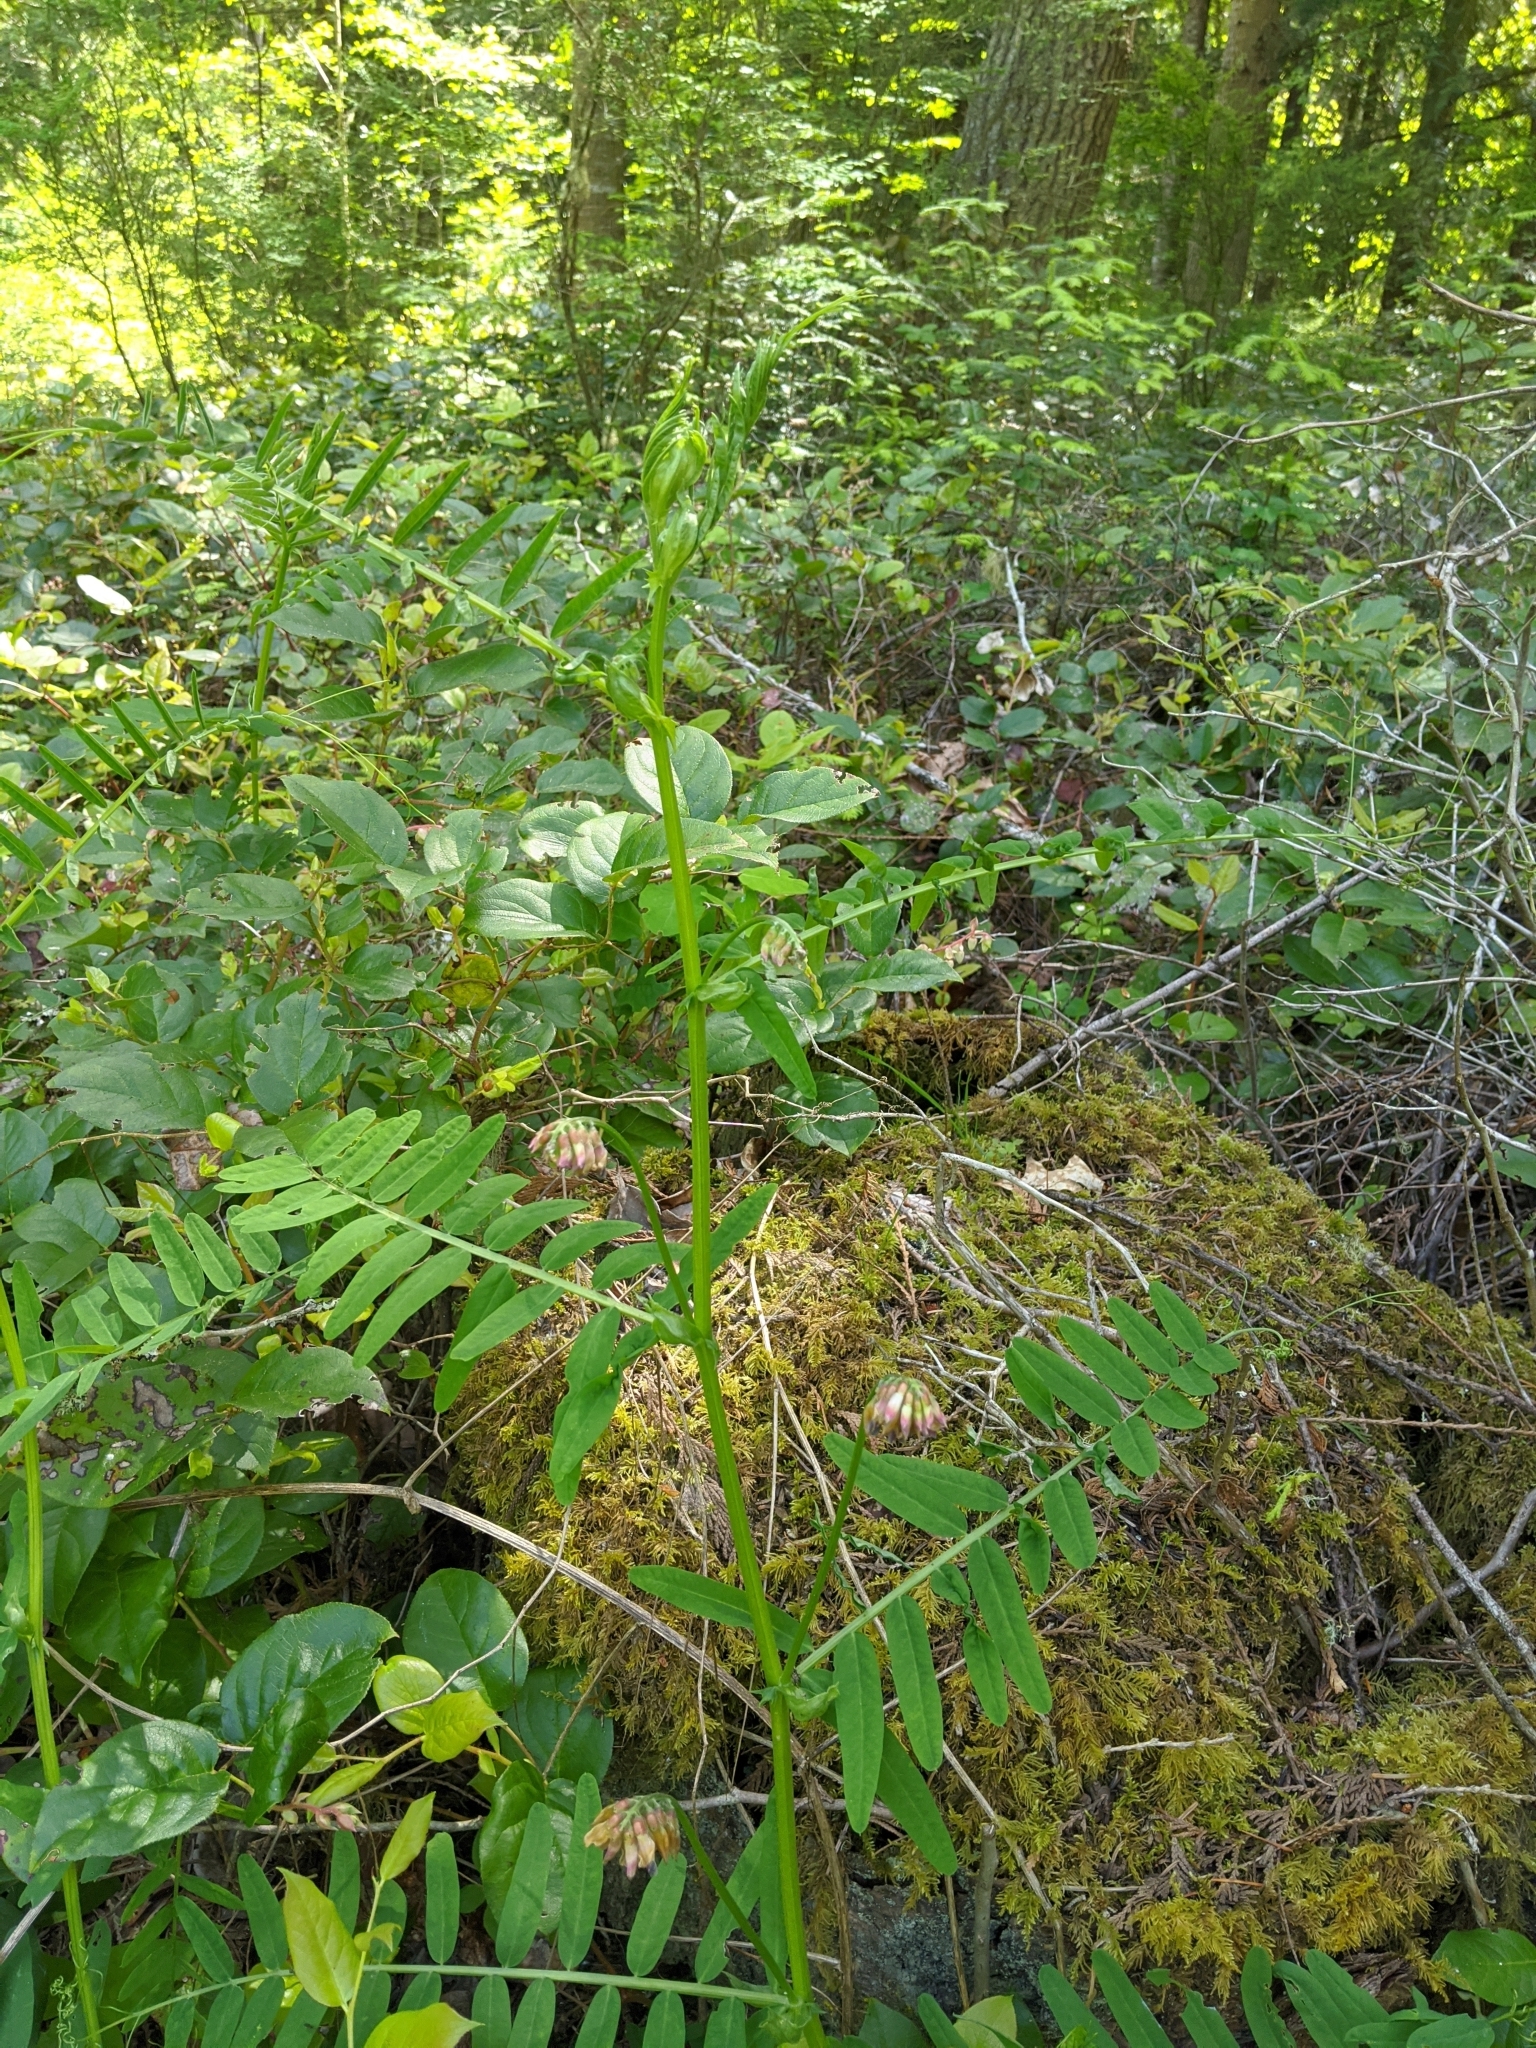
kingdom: Plantae
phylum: Tracheophyta
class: Magnoliopsida
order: Fabales
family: Fabaceae
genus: Vicia
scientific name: Vicia
